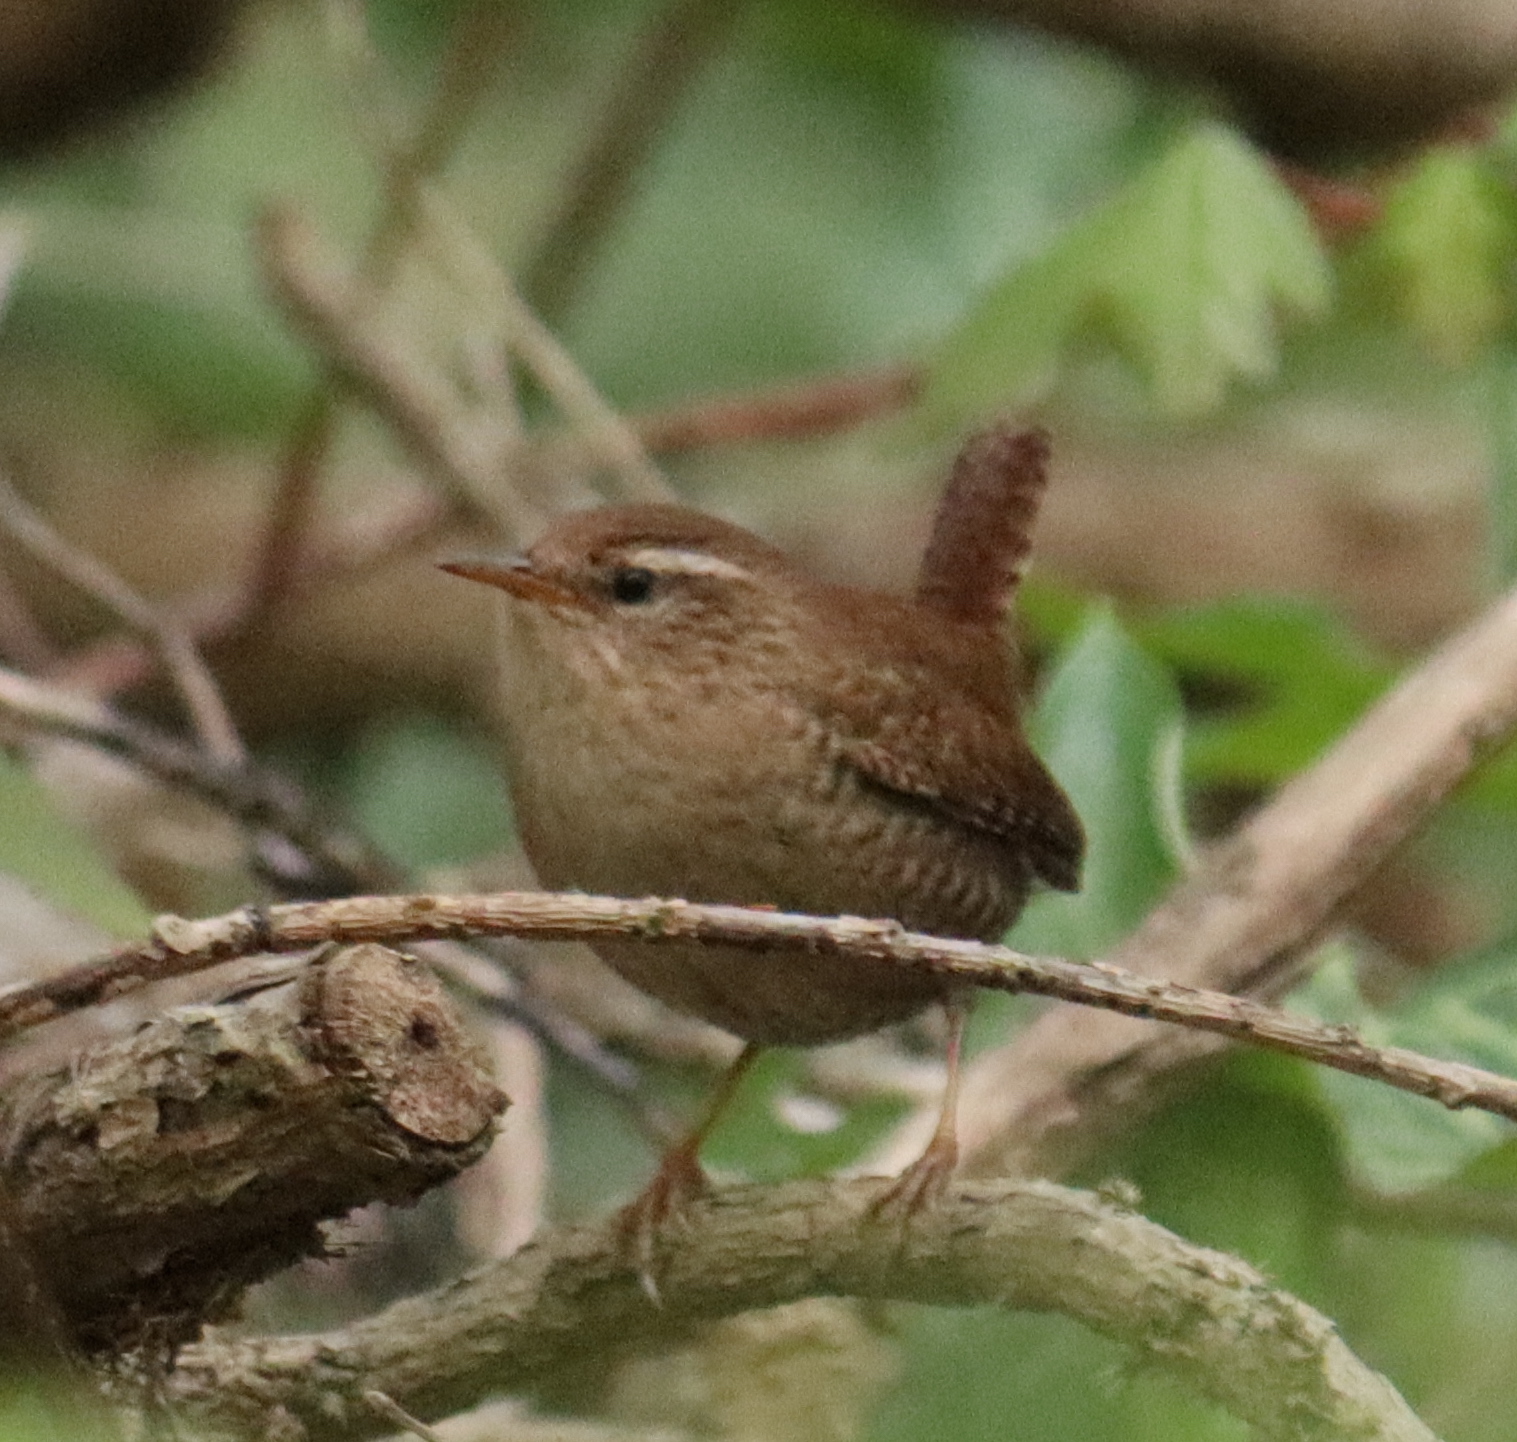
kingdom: Animalia
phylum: Chordata
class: Aves
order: Passeriformes
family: Troglodytidae
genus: Troglodytes
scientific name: Troglodytes troglodytes
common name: Eurasian wren
